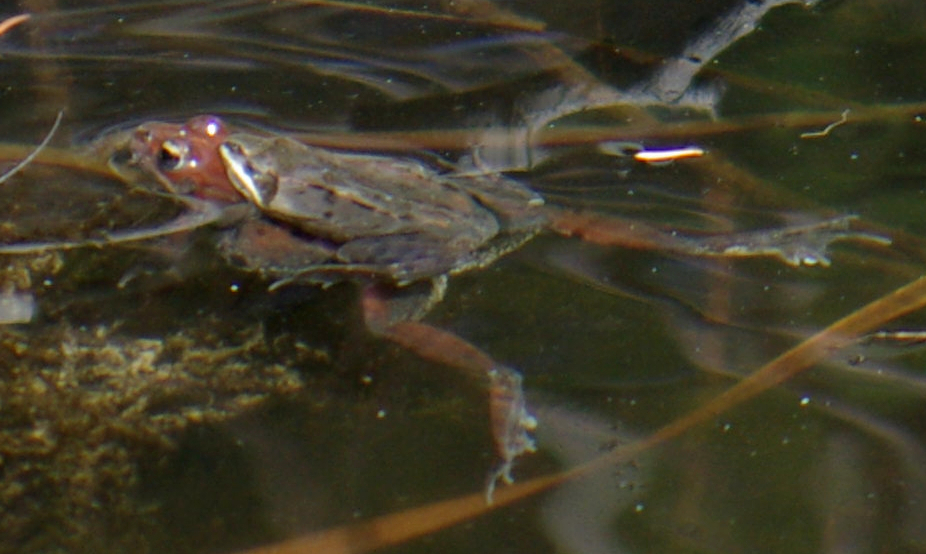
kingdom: Animalia
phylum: Chordata
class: Amphibia
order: Anura
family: Ranidae
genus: Lithobates
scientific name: Lithobates sylvaticus
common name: Wood frog
